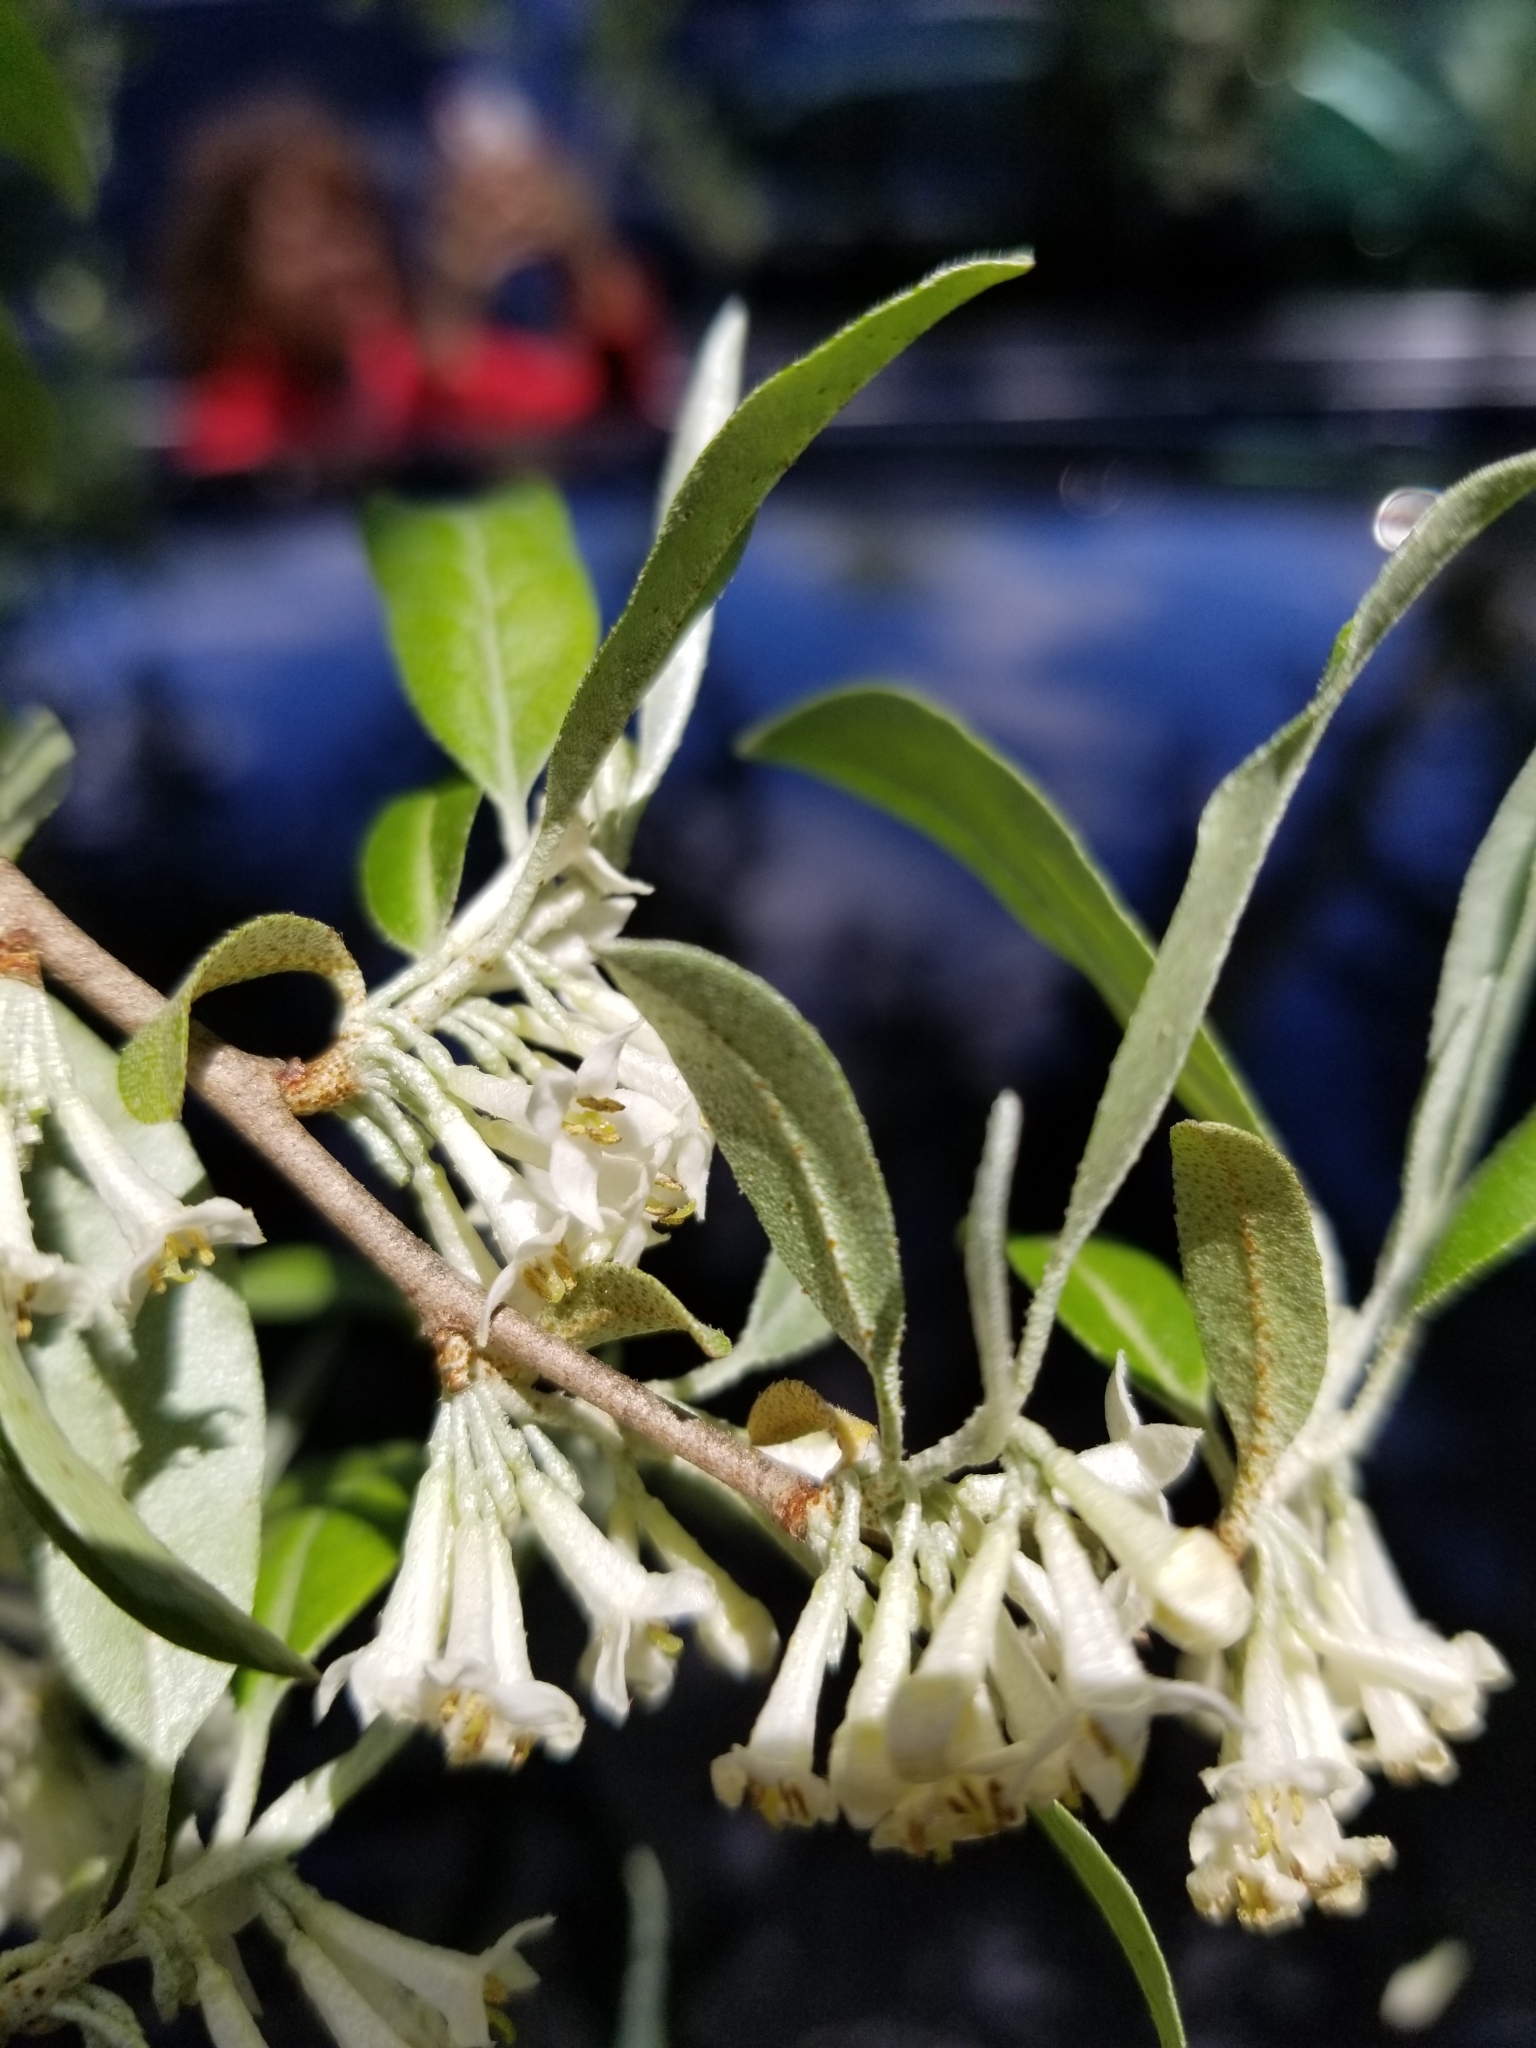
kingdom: Plantae
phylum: Tracheophyta
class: Magnoliopsida
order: Rosales
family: Elaeagnaceae
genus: Elaeagnus
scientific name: Elaeagnus umbellata
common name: Autumn olive
